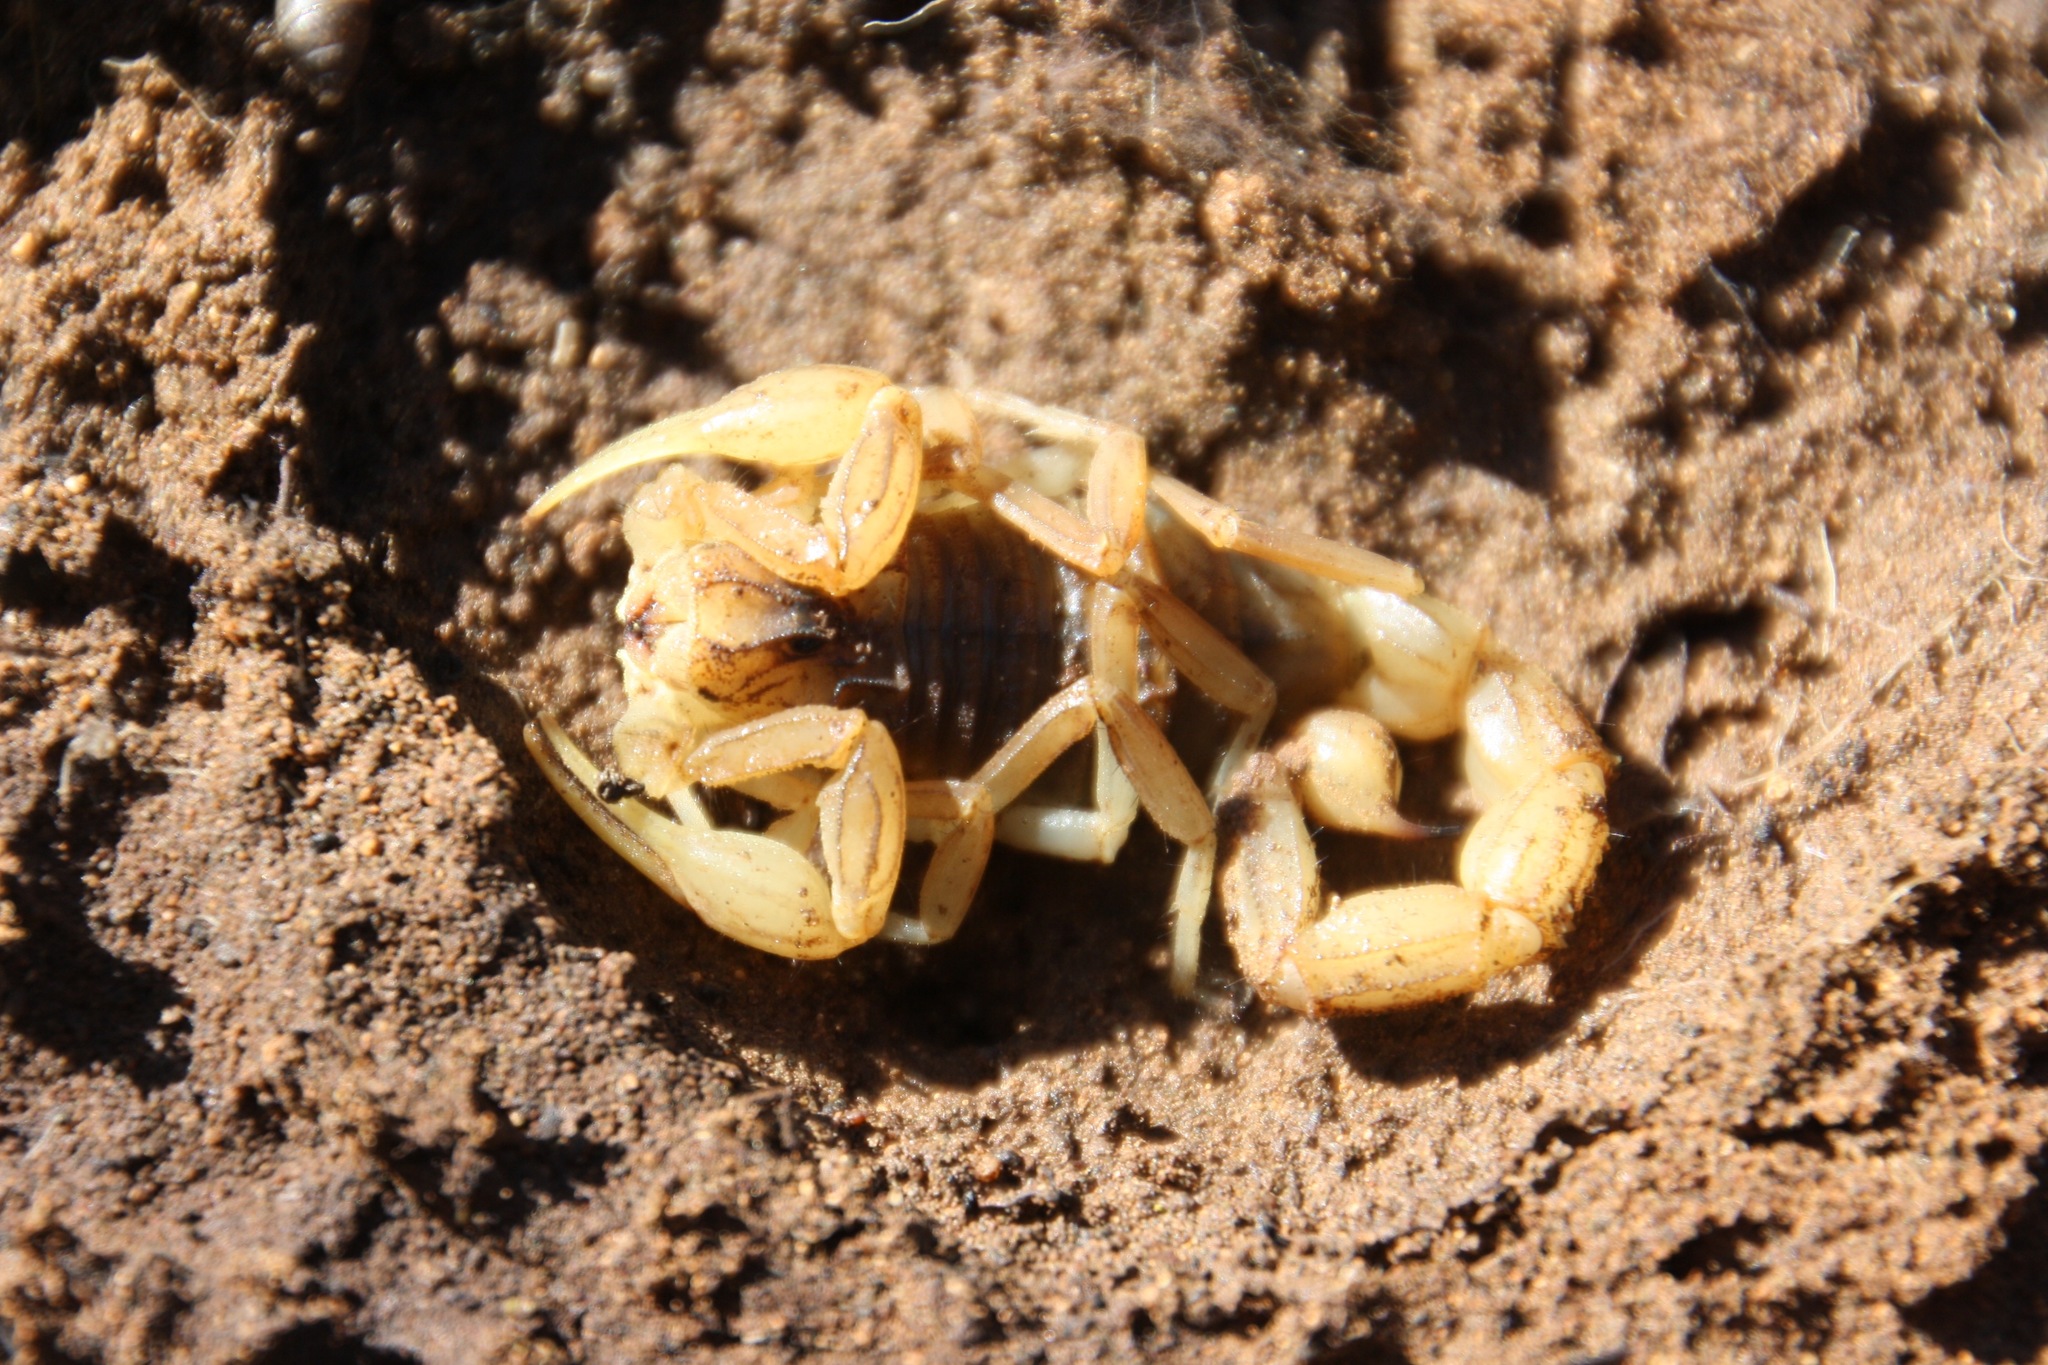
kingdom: Animalia
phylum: Arthropoda
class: Arachnida
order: Scorpiones
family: Buthidae
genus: Buthus
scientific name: Buthus kunti
